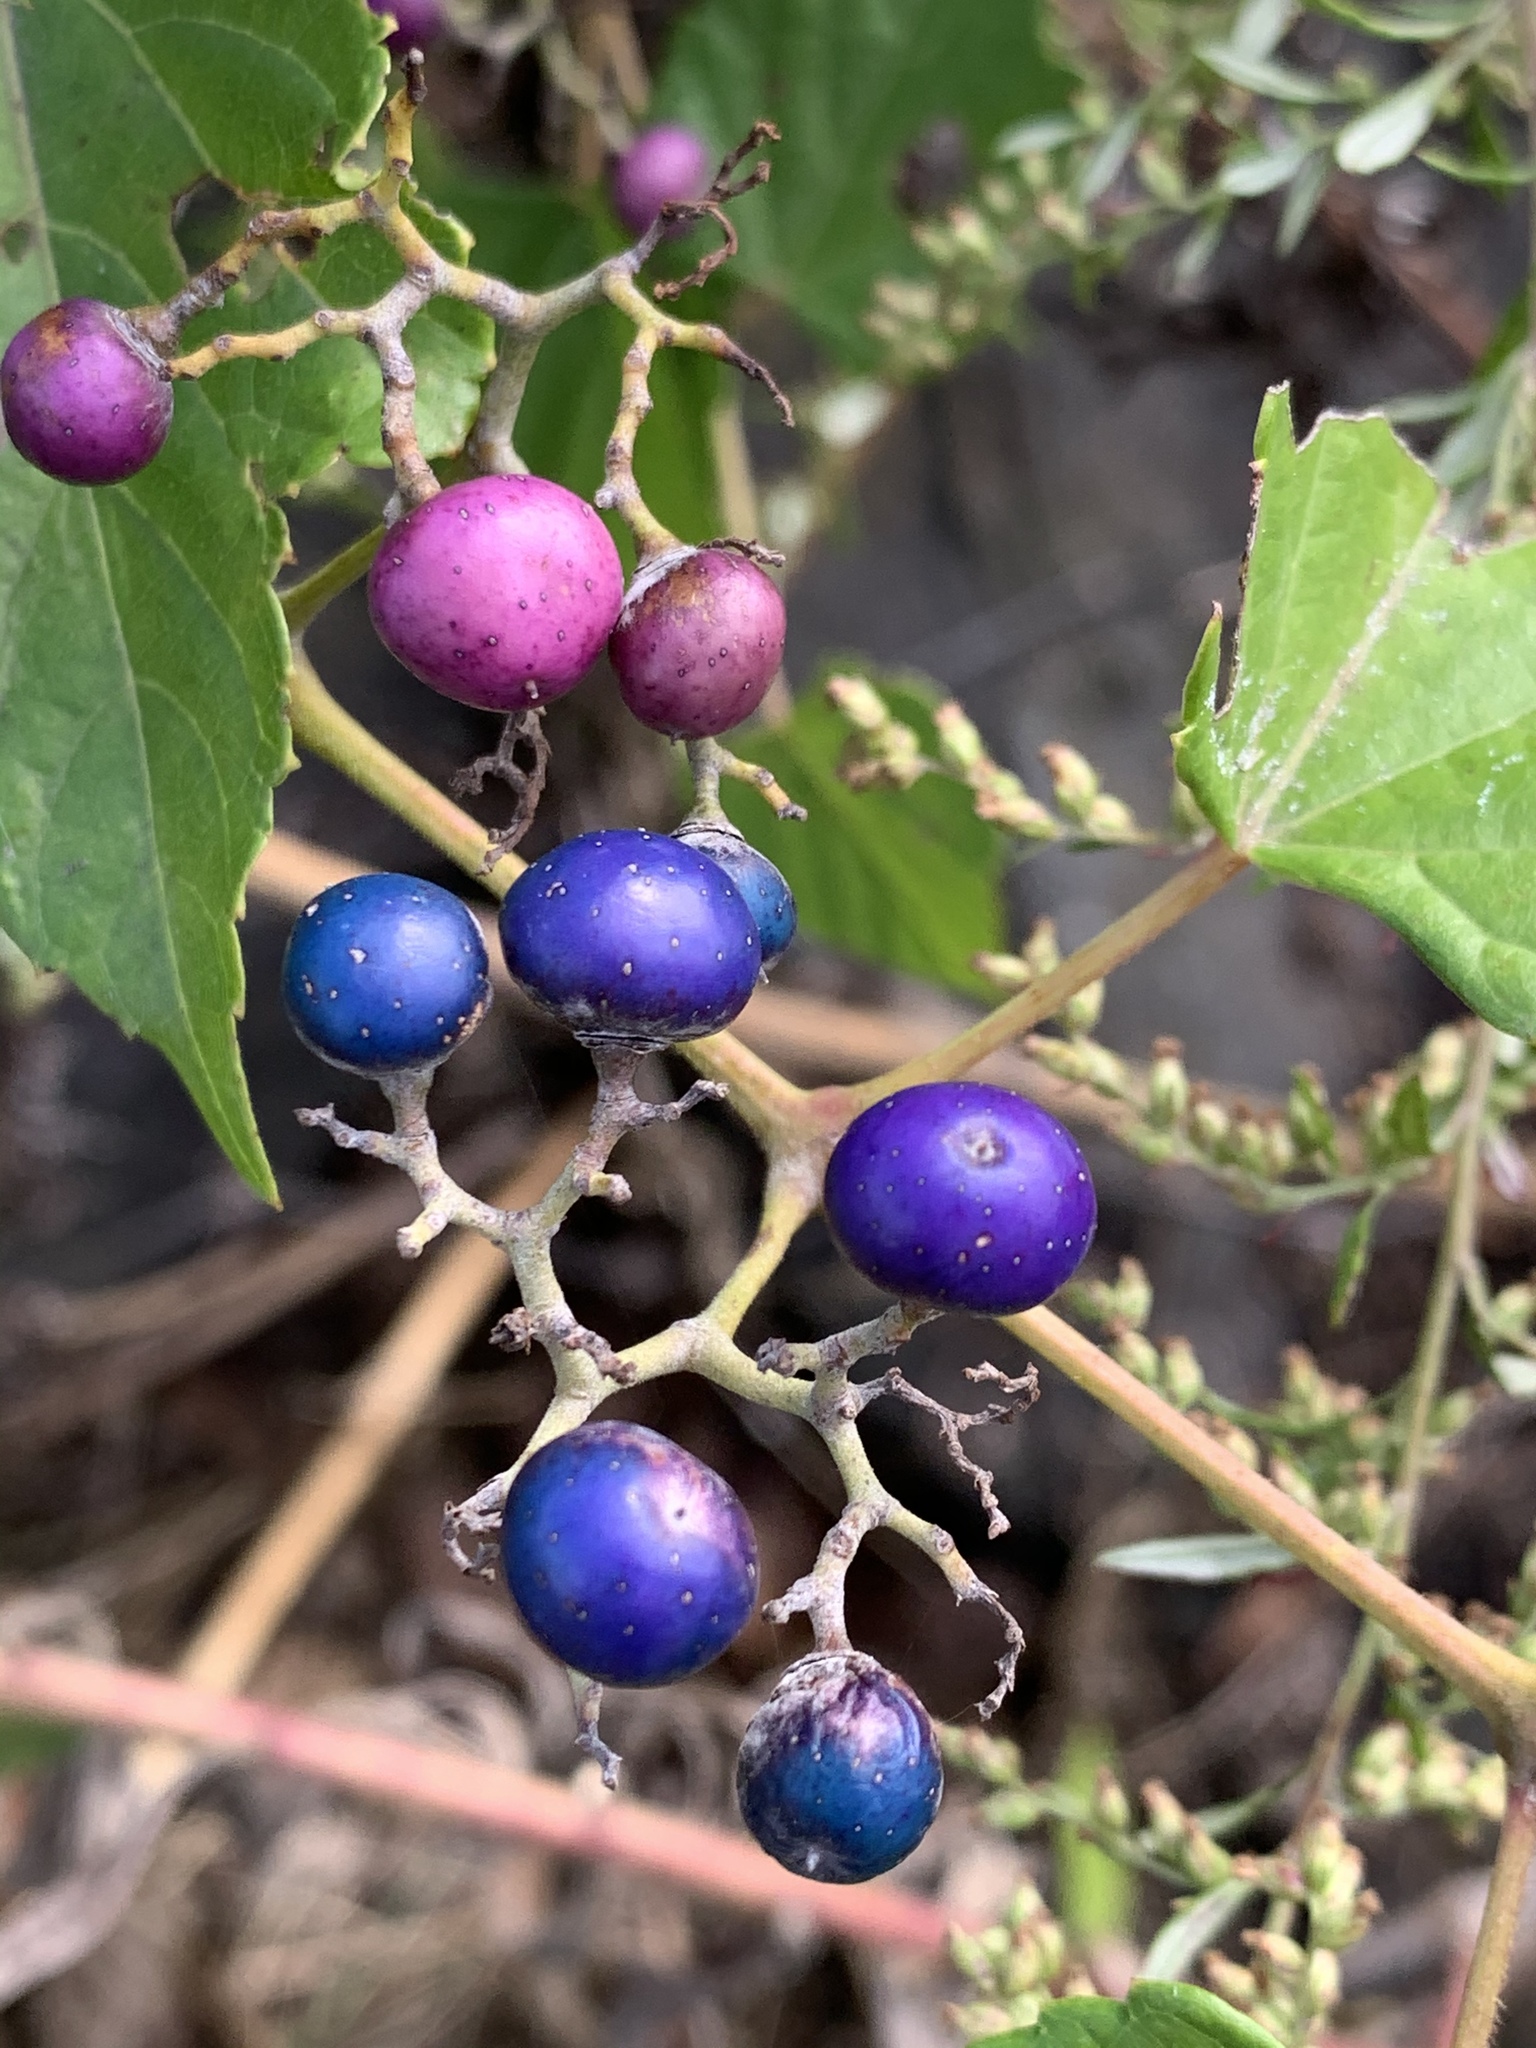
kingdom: Plantae
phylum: Tracheophyta
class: Magnoliopsida
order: Vitales
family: Vitaceae
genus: Ampelopsis
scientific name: Ampelopsis glandulosa
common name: Amur peppervine
